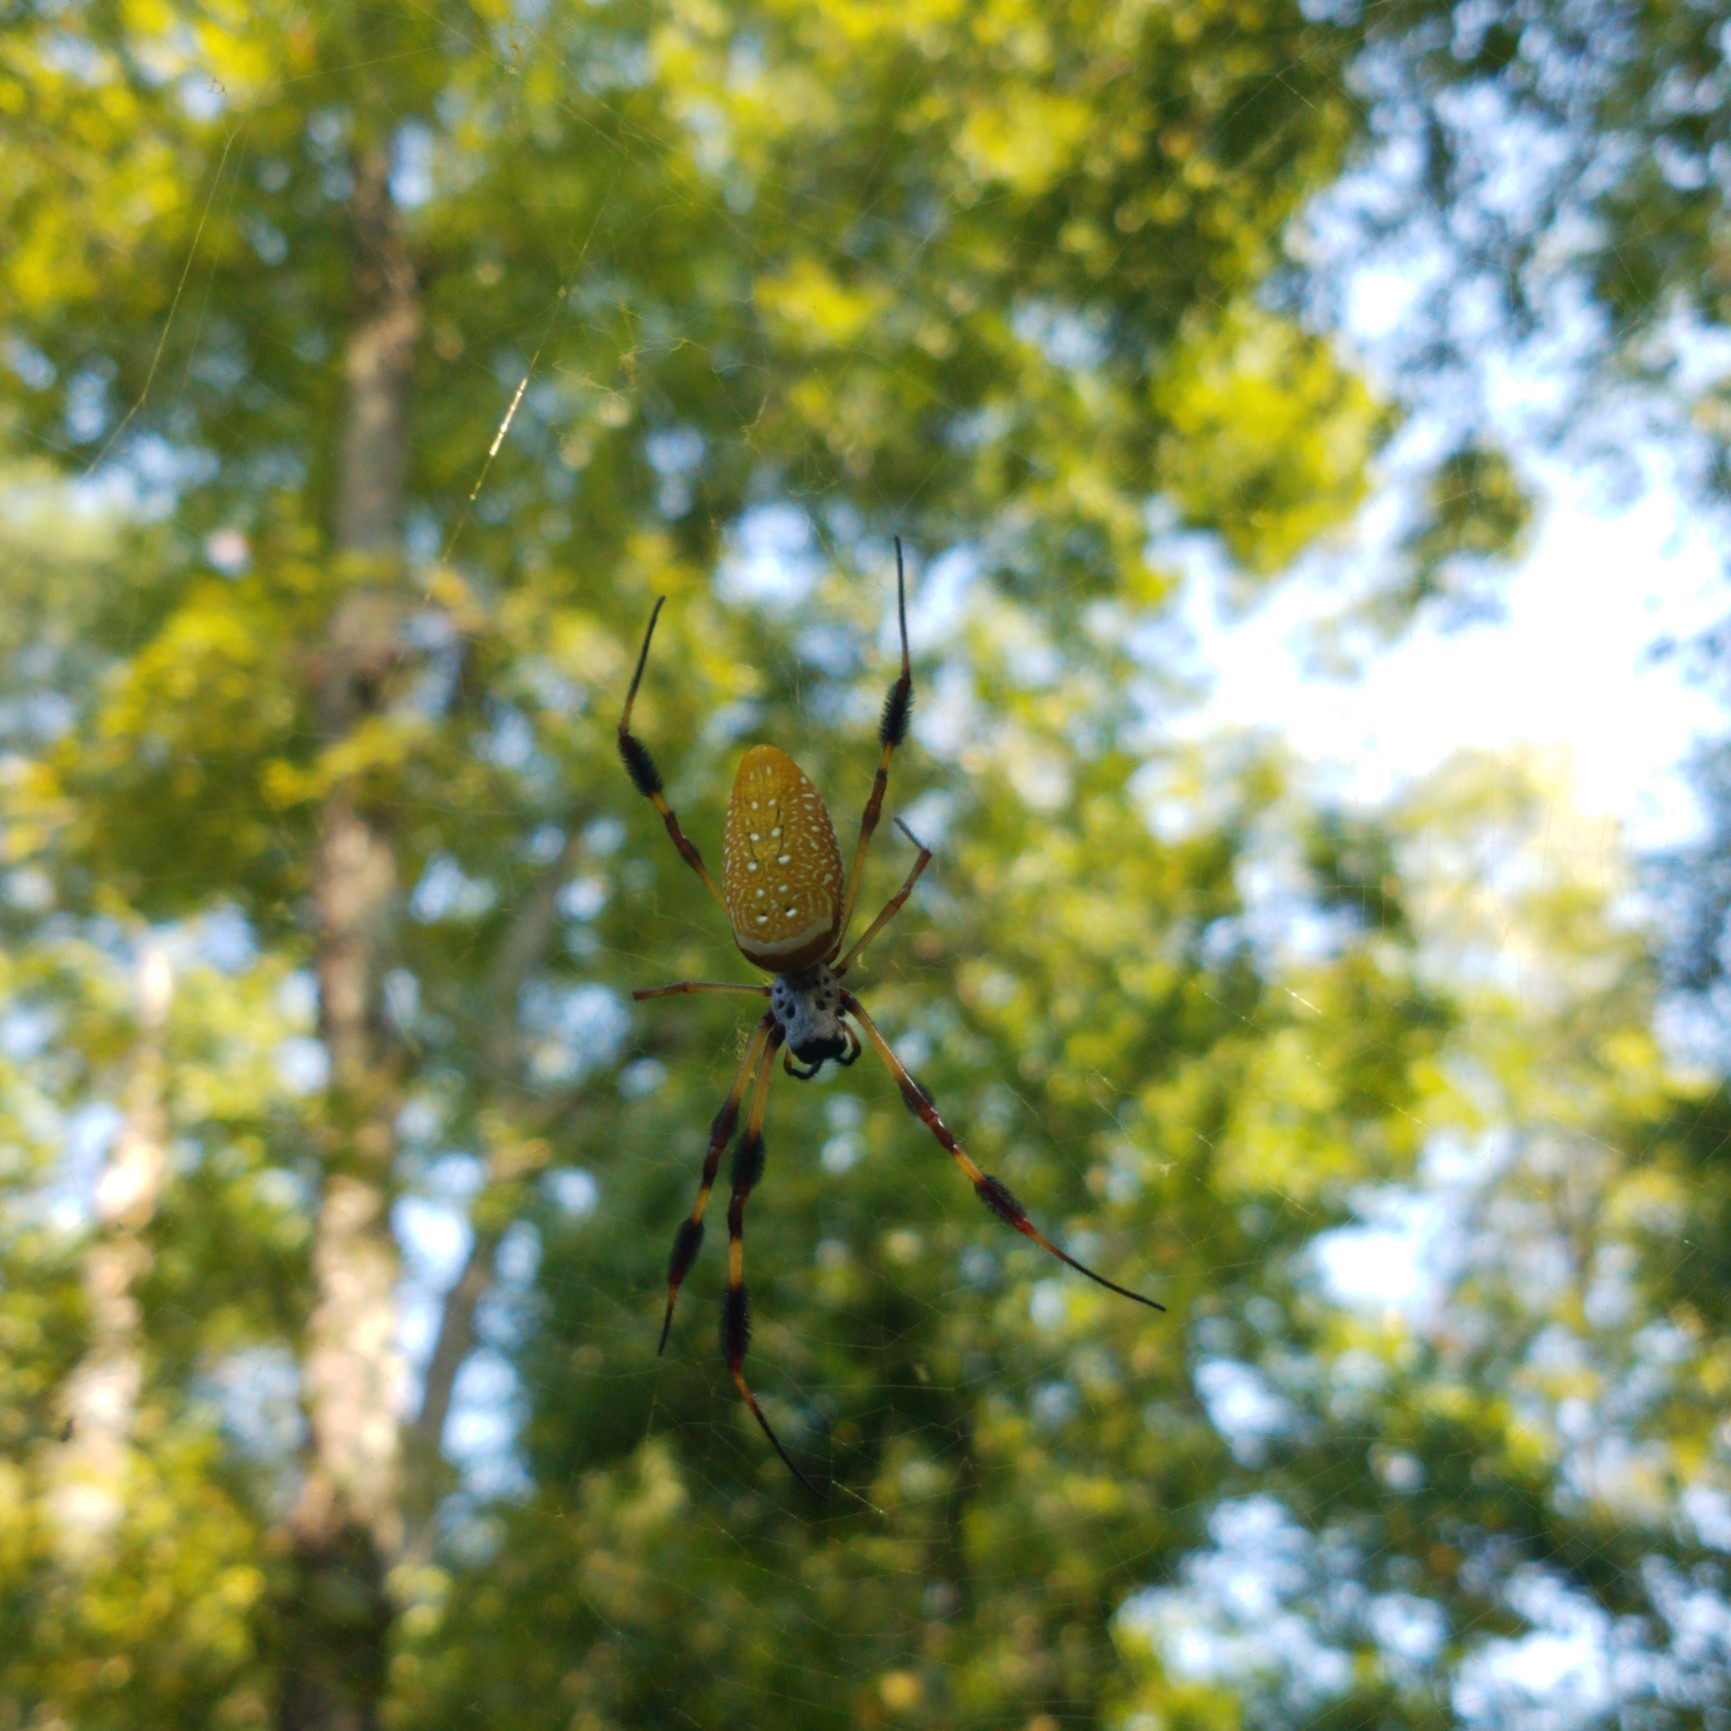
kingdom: Animalia
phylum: Arthropoda
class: Arachnida
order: Araneae
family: Araneidae
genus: Trichonephila
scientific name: Trichonephila clavipes
